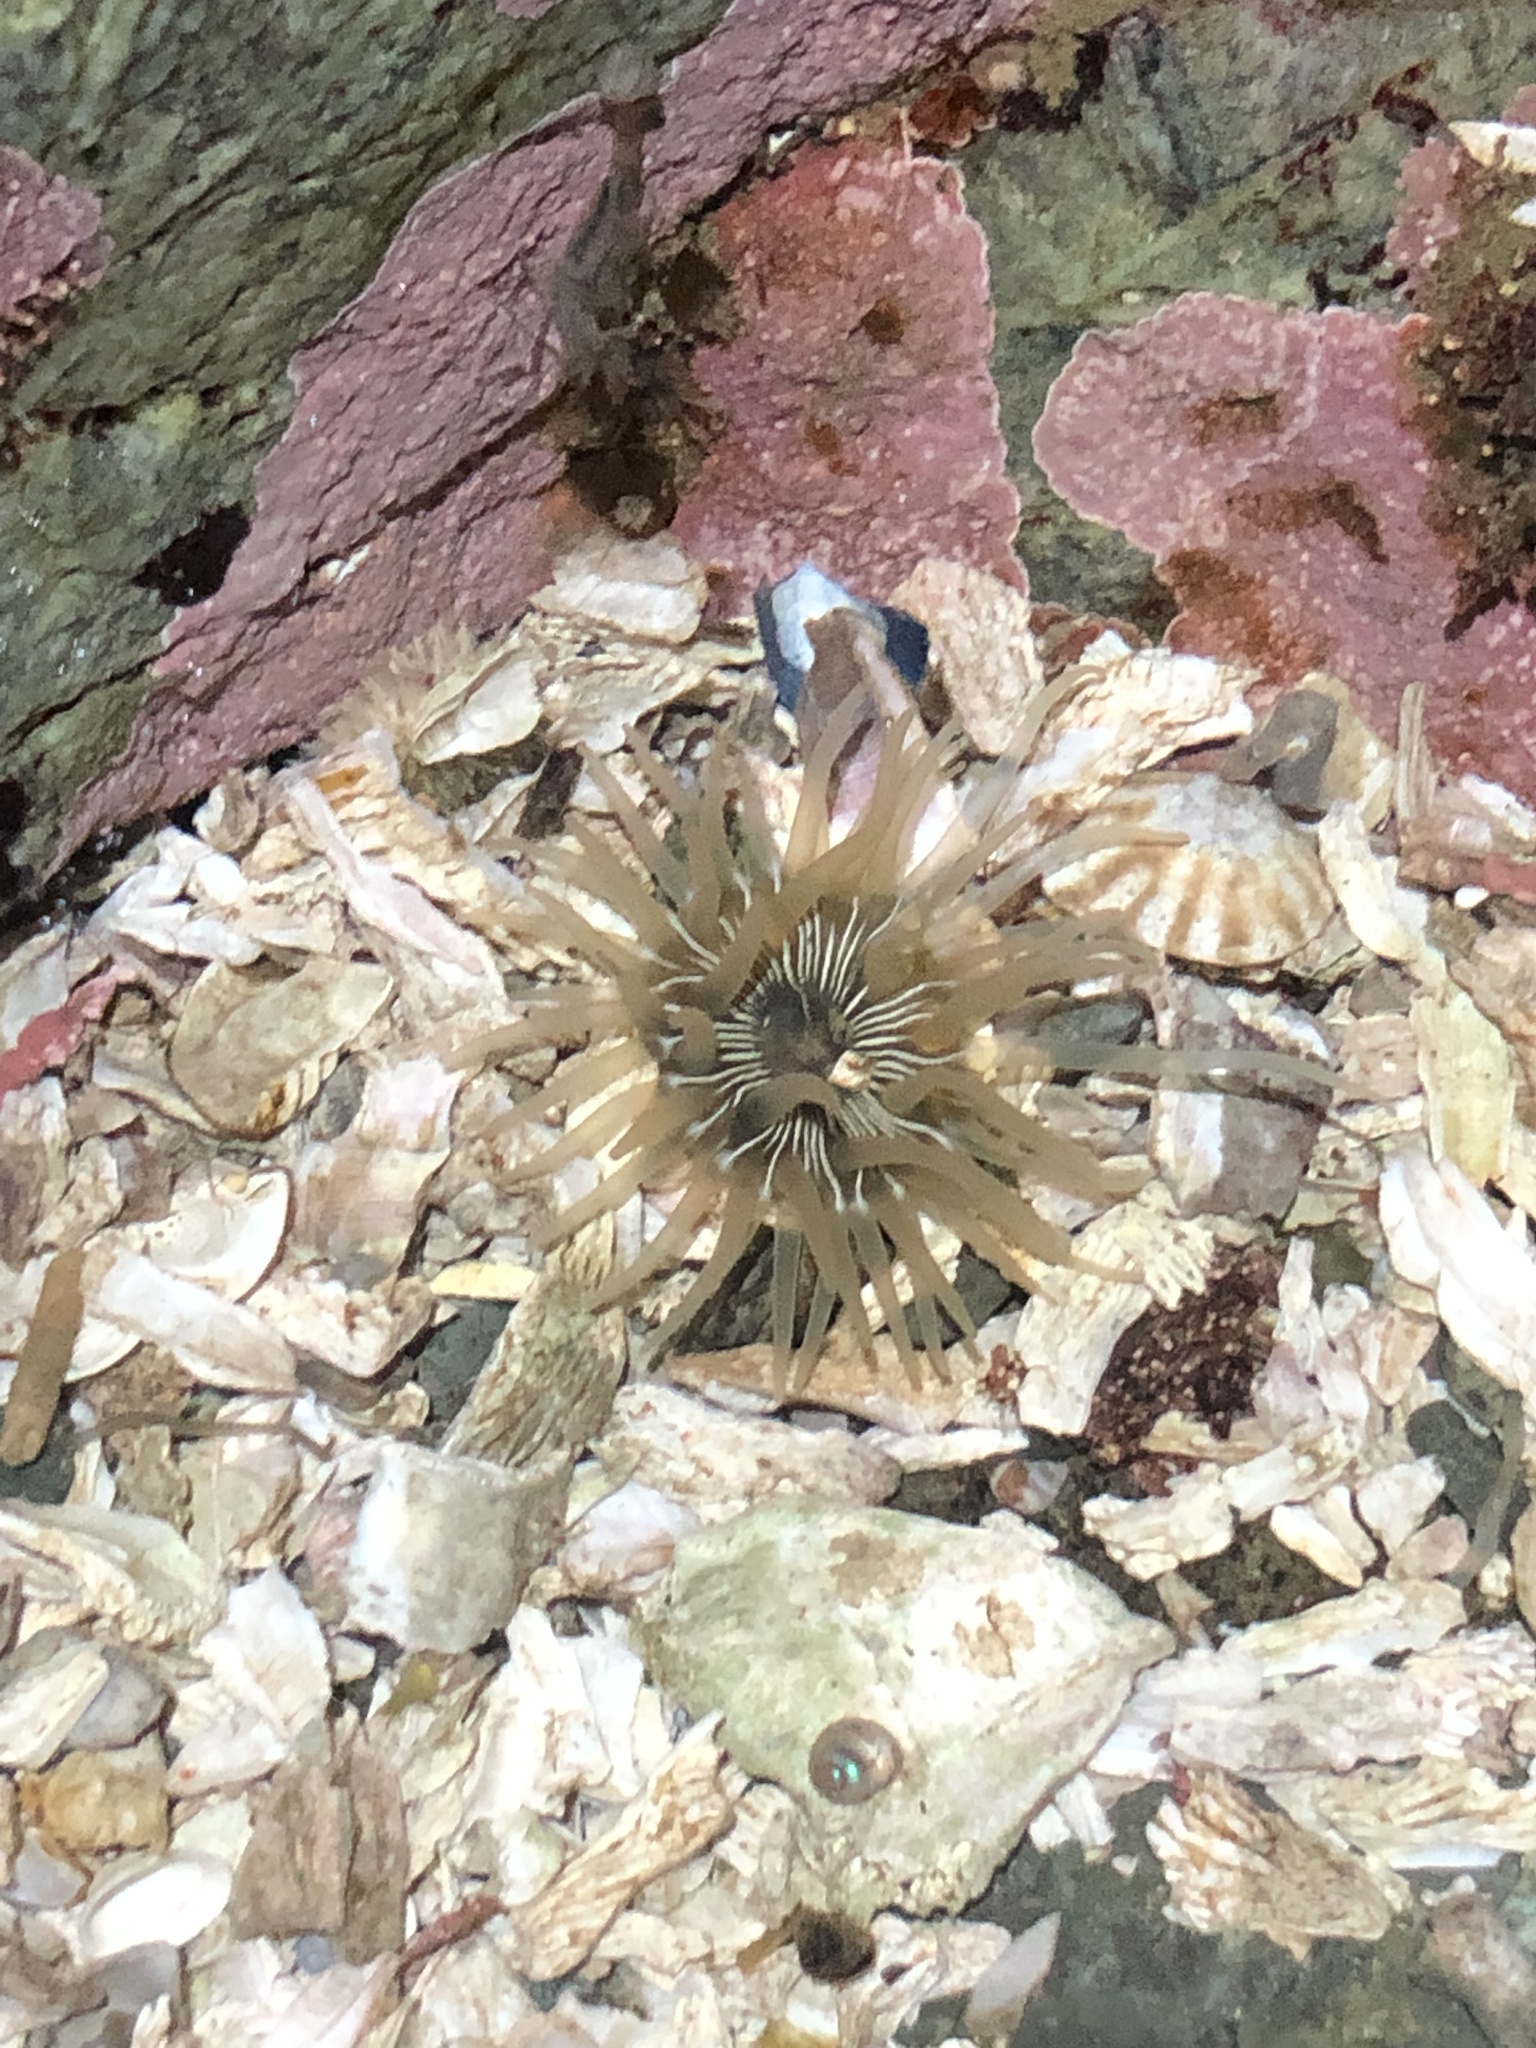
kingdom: Animalia
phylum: Cnidaria
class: Anthozoa
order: Actiniaria
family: Actiniidae
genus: Aulactinia
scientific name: Aulactinia incubans
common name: Incubating anemone
